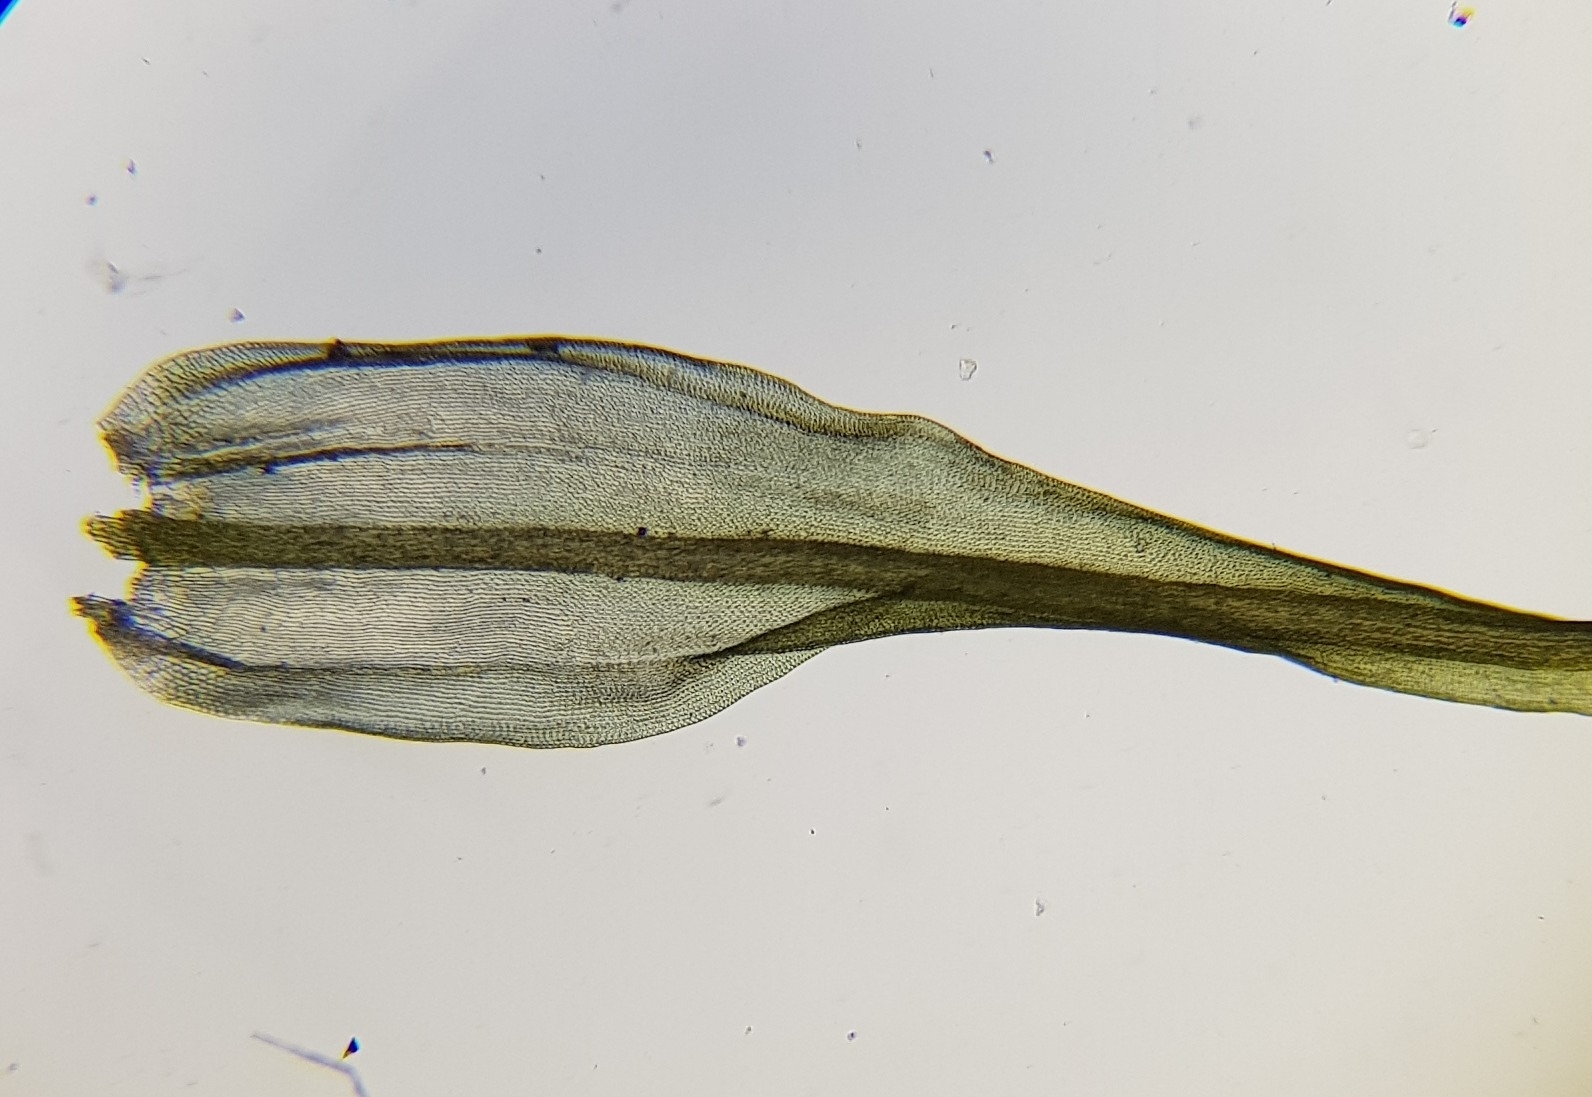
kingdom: Plantae
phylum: Bryophyta
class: Bryopsida
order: Grimmiales
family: Ptychomitriaceae
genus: Ptychomitrium
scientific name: Ptychomitrium polyphyllum
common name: Greater pincushion
